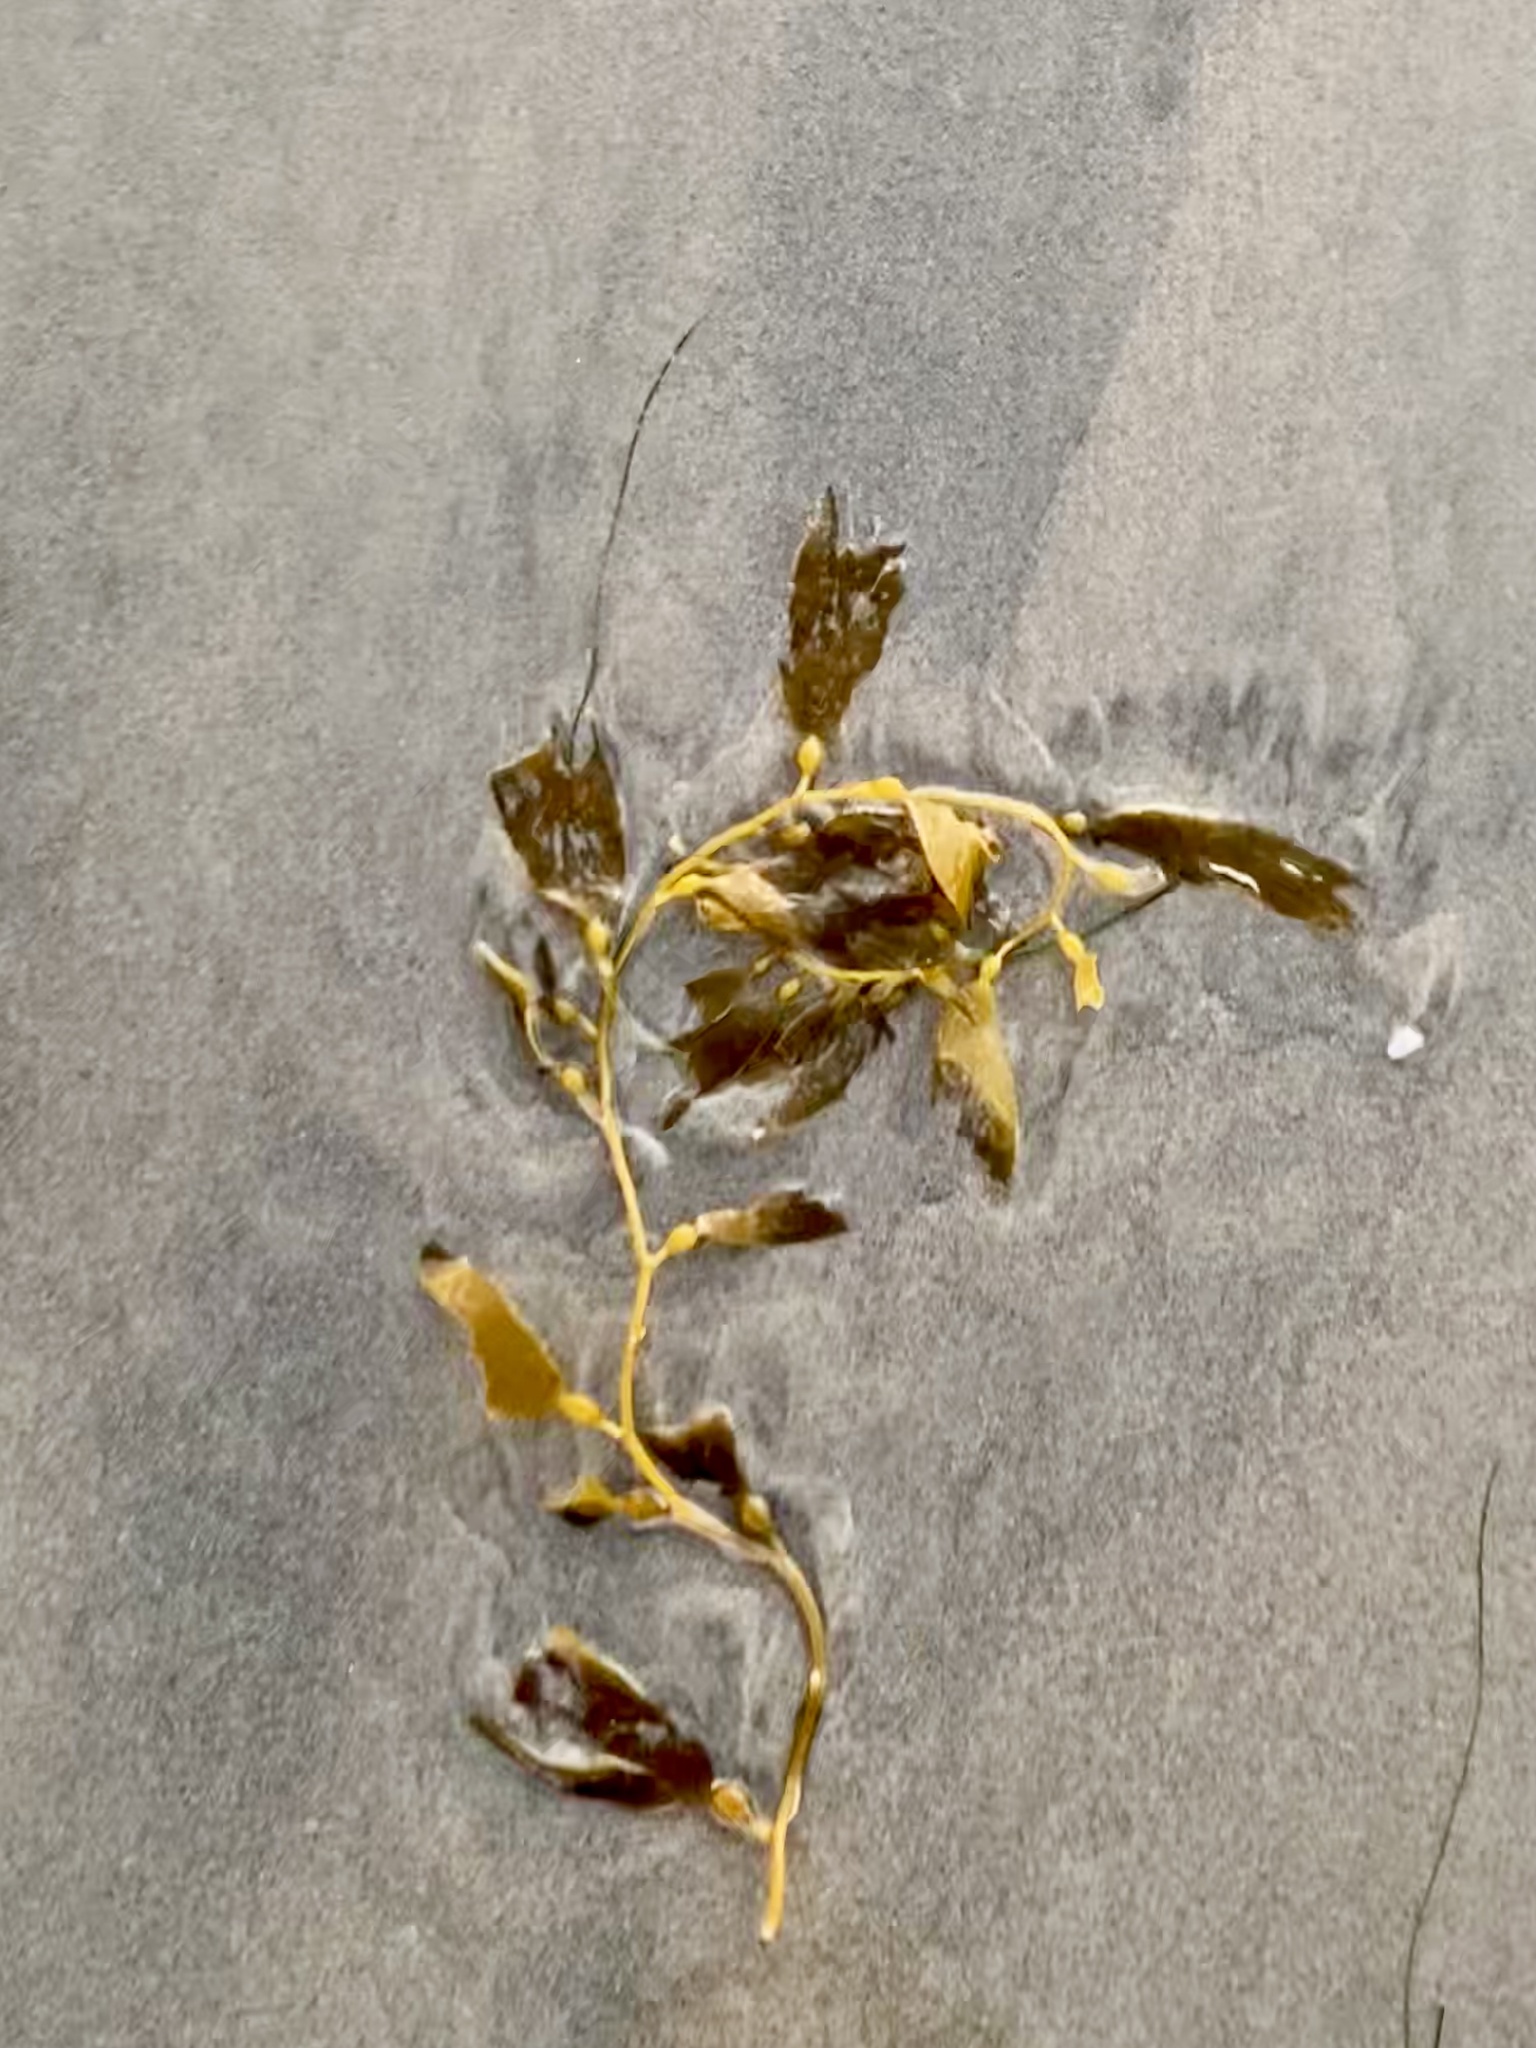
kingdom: Chromista
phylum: Ochrophyta
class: Phaeophyceae
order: Laminariales
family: Laminariaceae
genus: Macrocystis
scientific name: Macrocystis pyrifera
